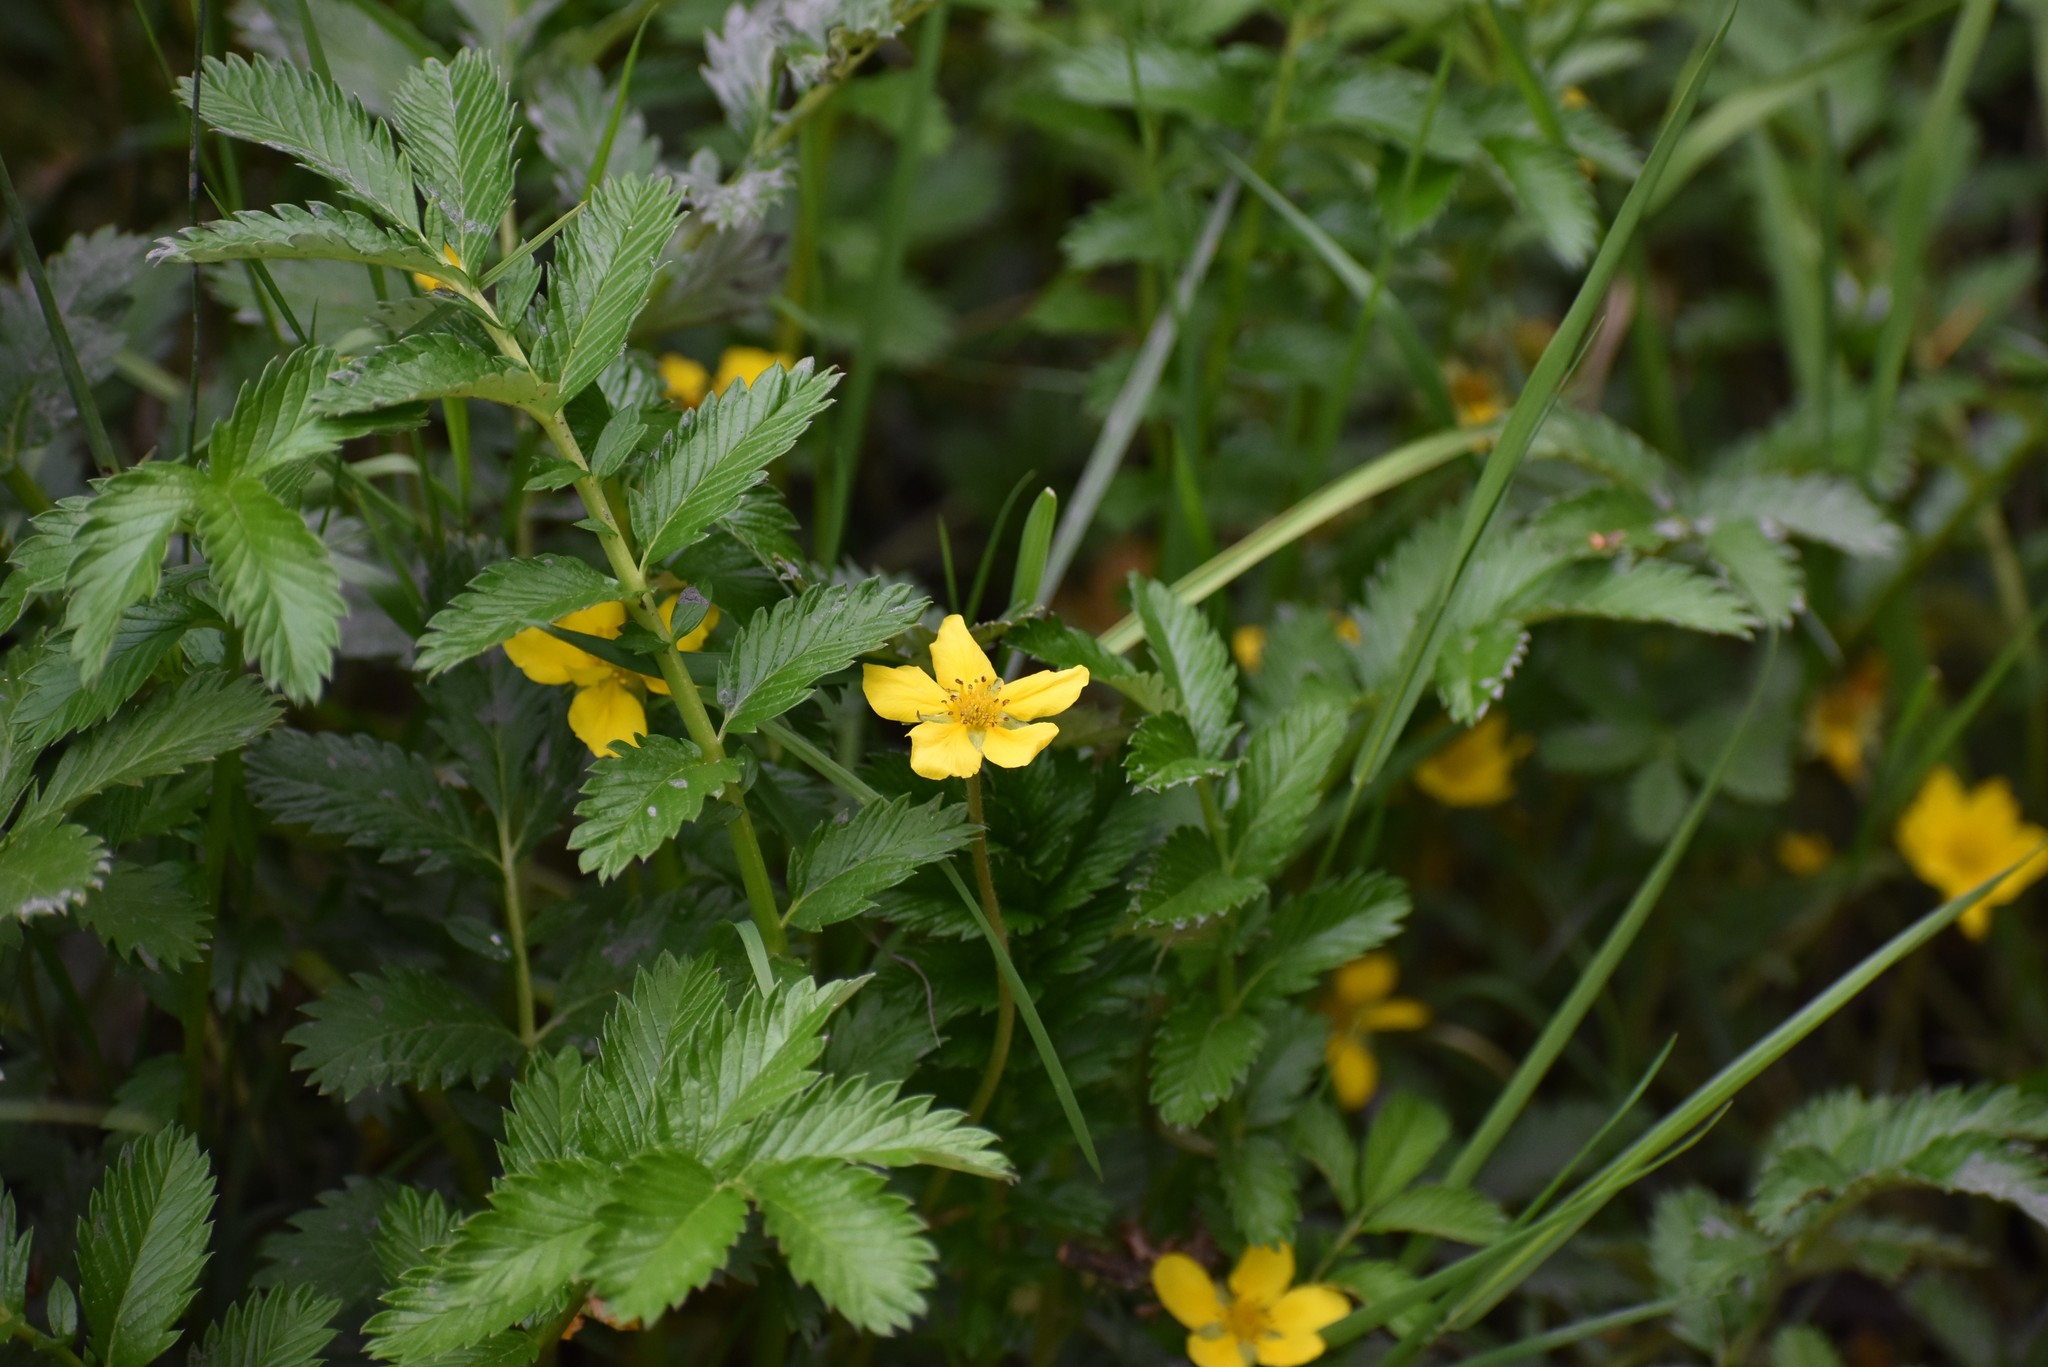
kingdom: Plantae
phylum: Tracheophyta
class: Magnoliopsida
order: Rosales
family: Rosaceae
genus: Argentina
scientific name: Argentina anserina
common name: Common silverweed
